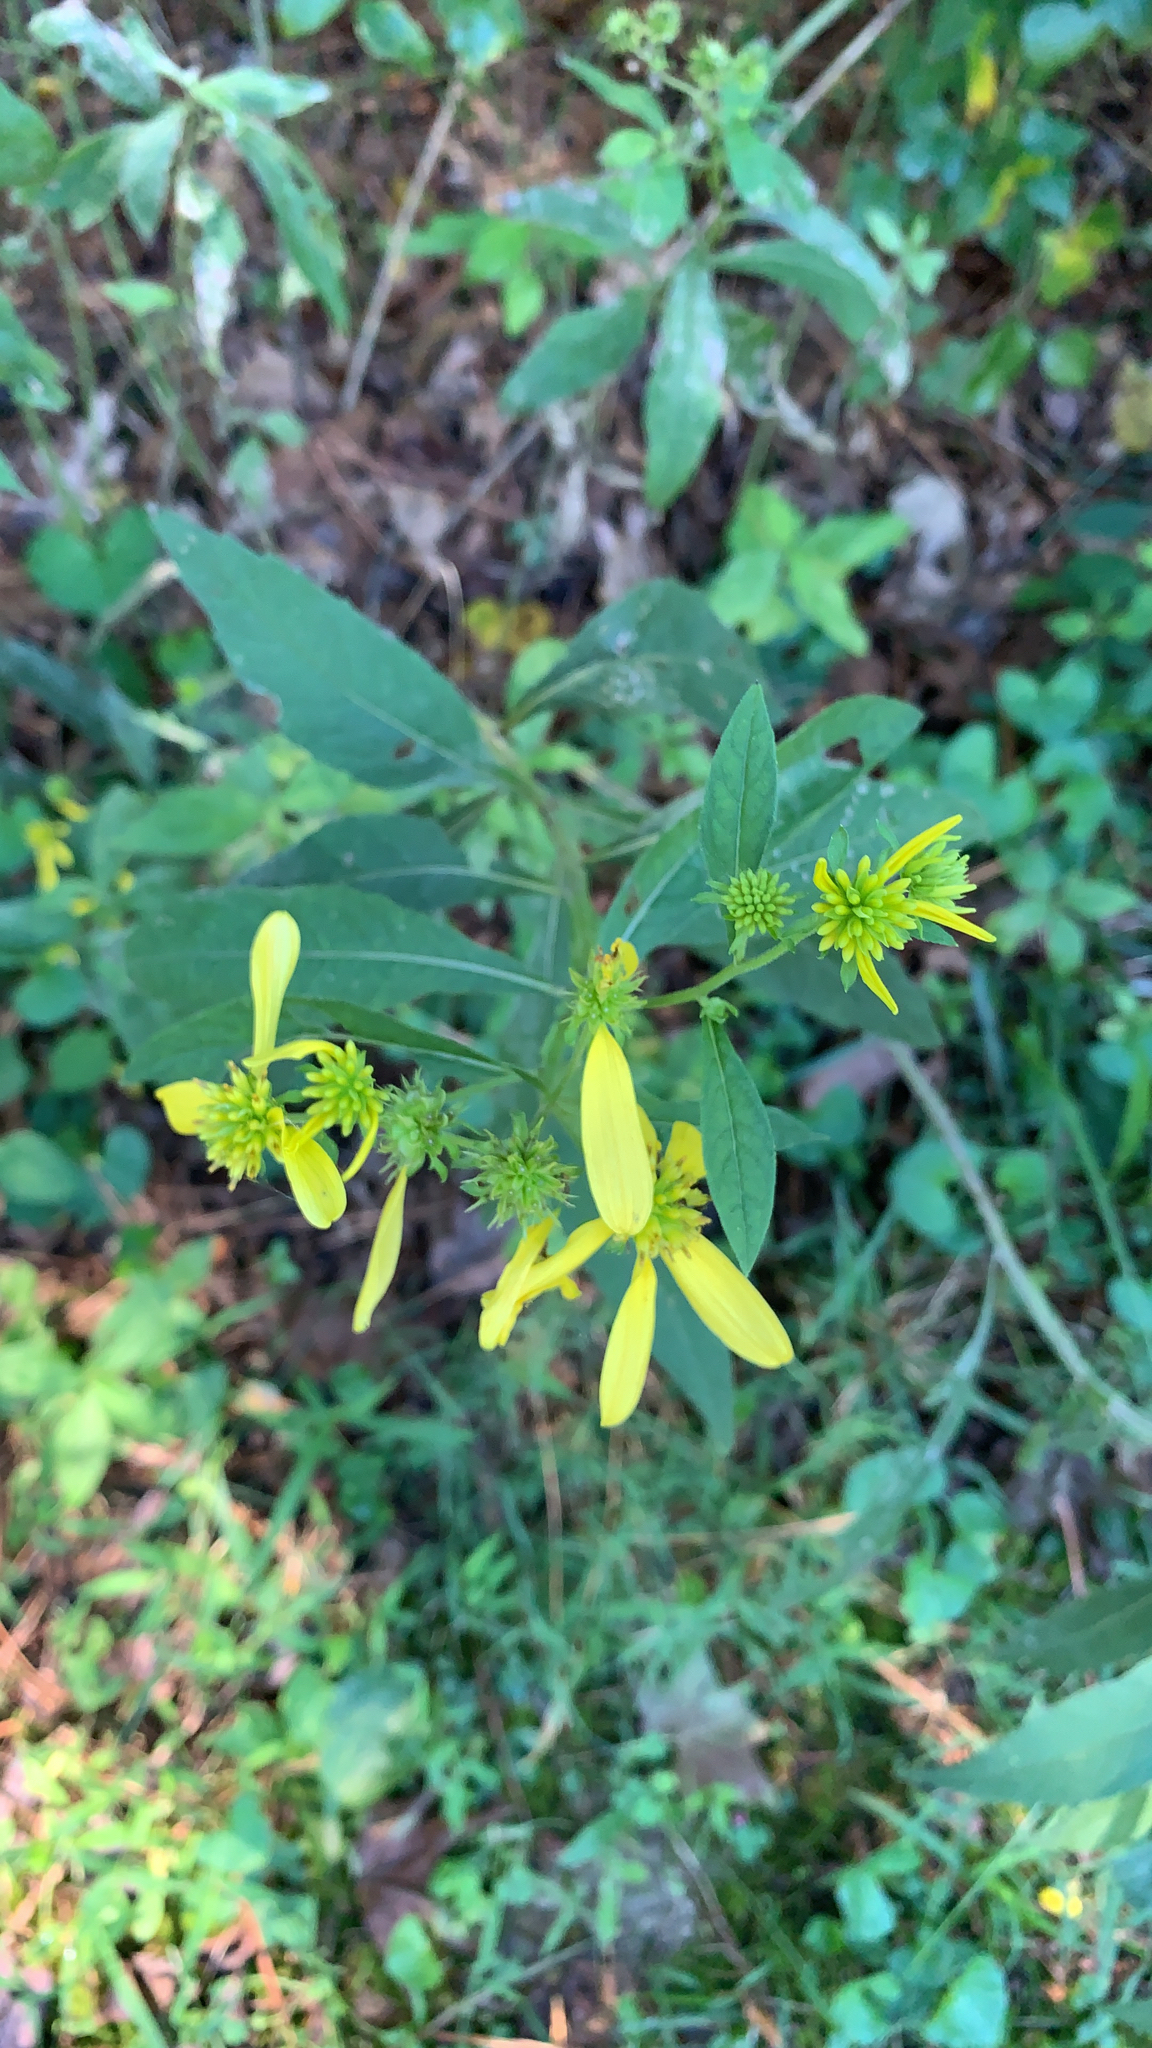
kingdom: Plantae
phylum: Tracheophyta
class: Magnoliopsida
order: Asterales
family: Asteraceae
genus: Verbesina
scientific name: Verbesina alternifolia
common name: Wingstem
